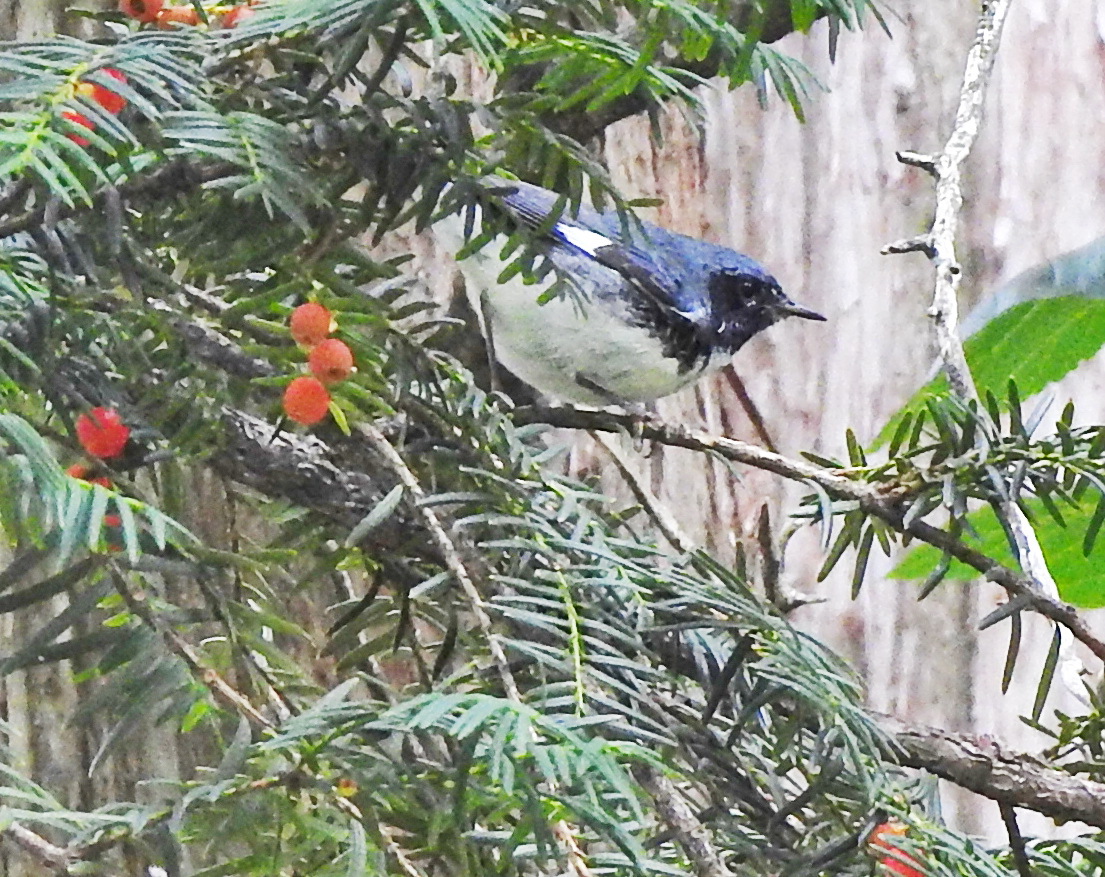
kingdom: Animalia
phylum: Chordata
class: Aves
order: Passeriformes
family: Parulidae
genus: Setophaga
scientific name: Setophaga caerulescens
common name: Black-throated blue warbler
